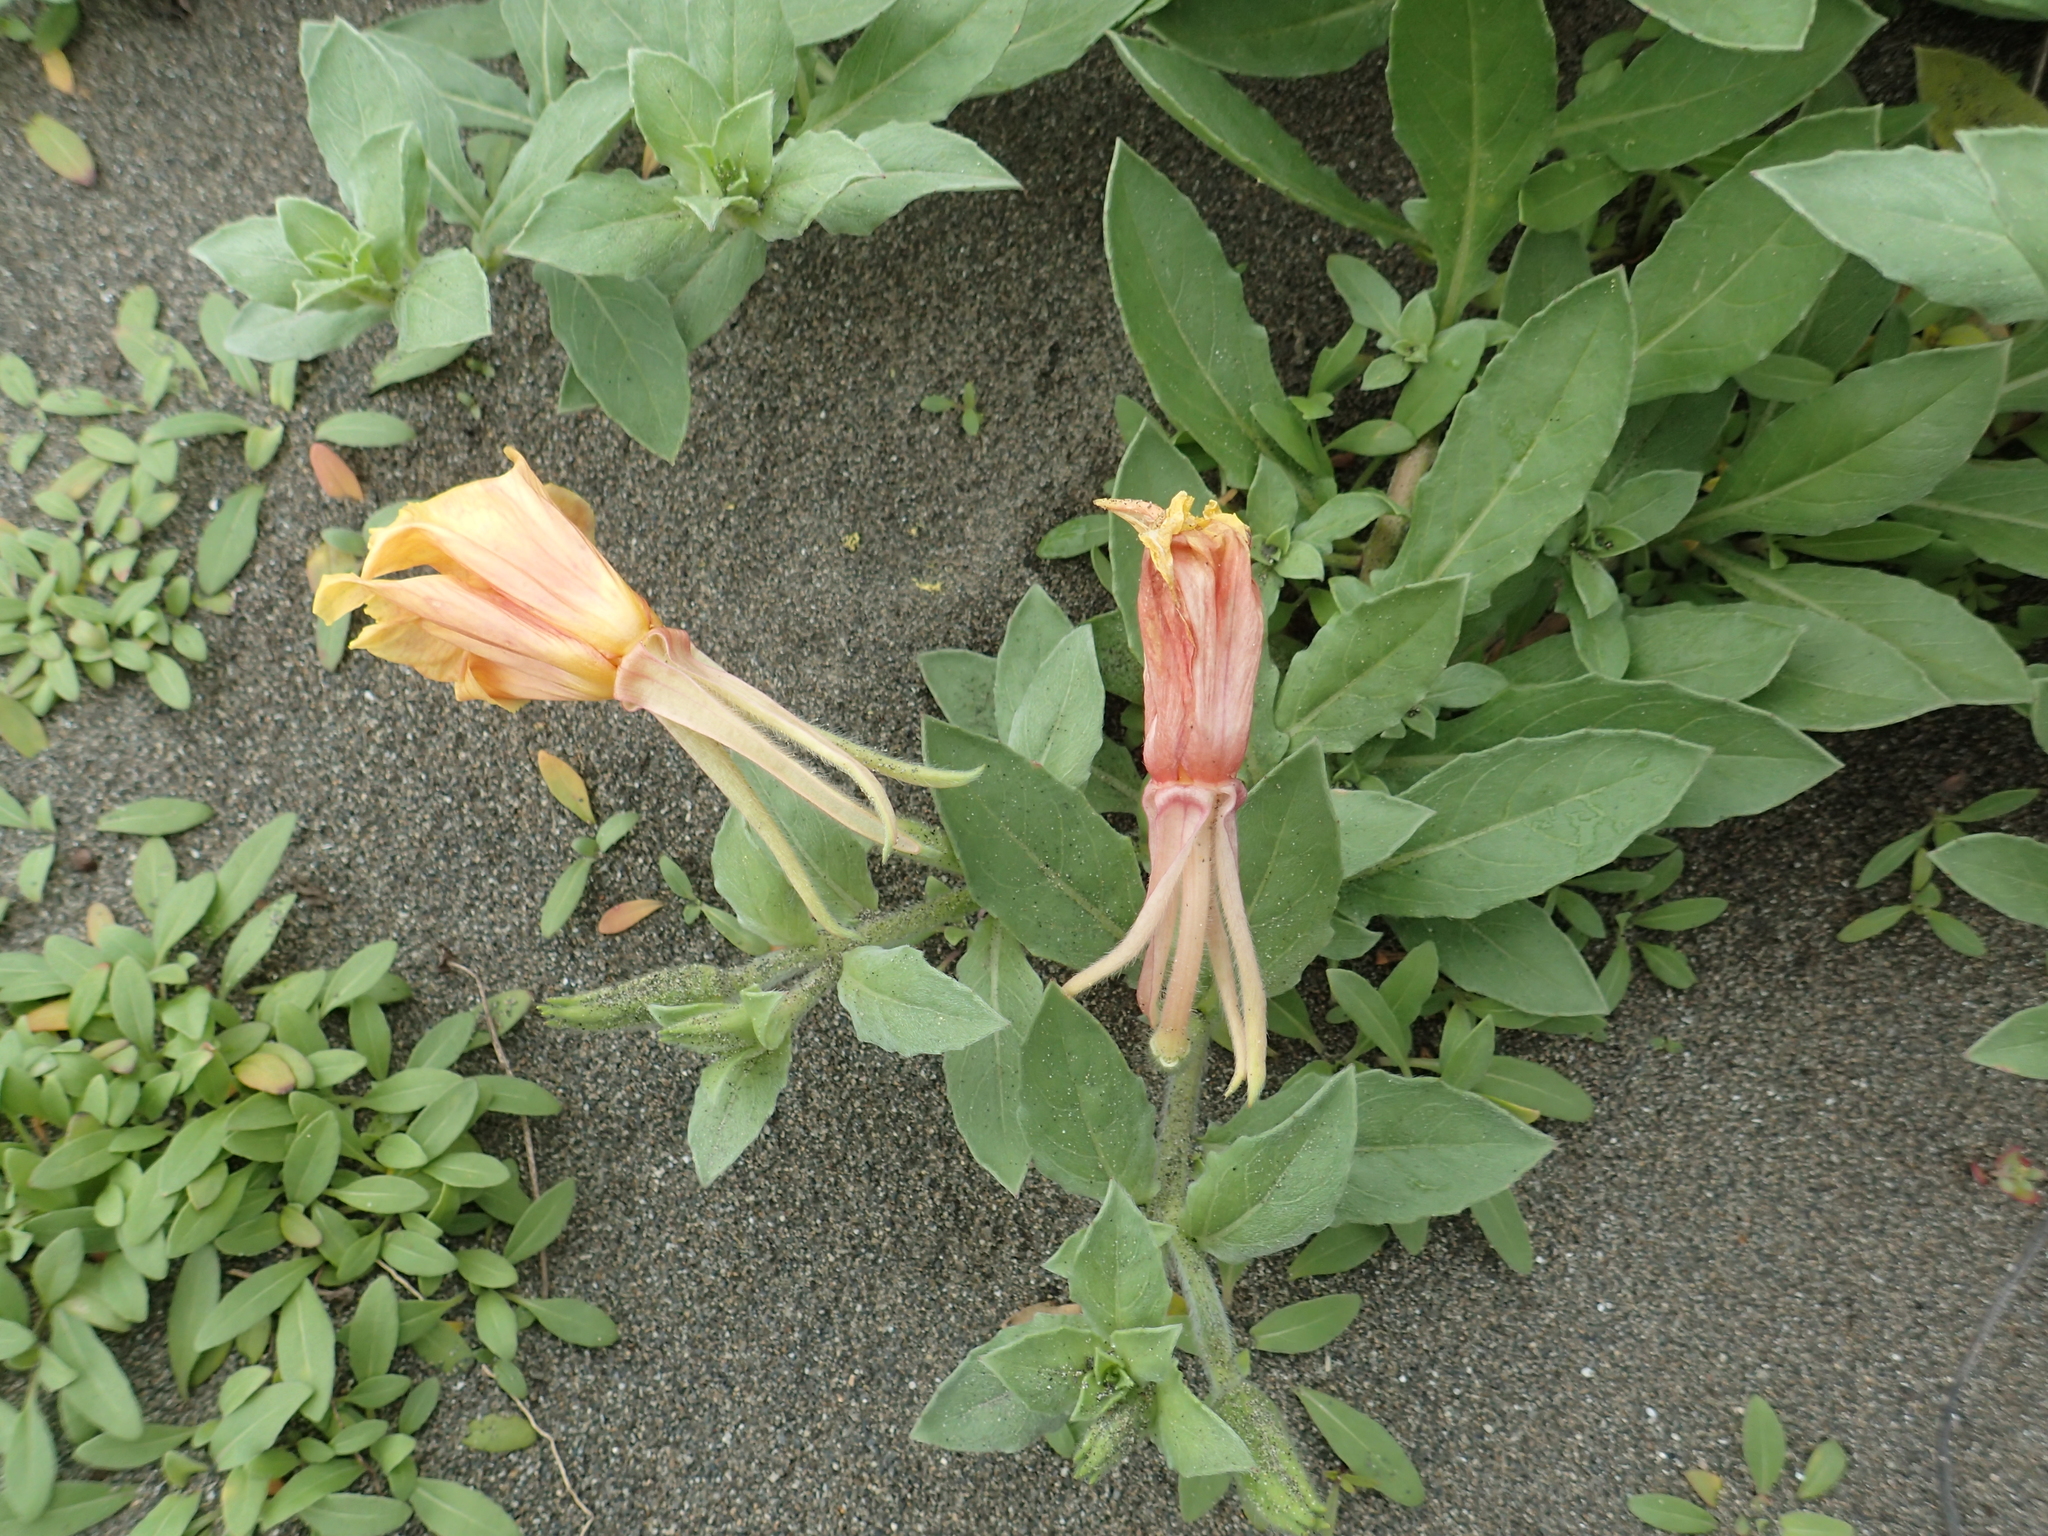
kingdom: Plantae
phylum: Tracheophyta
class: Magnoliopsida
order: Myrtales
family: Onagraceae
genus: Oenothera
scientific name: Oenothera laciniata
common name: Cut-leaved evening-primrose
